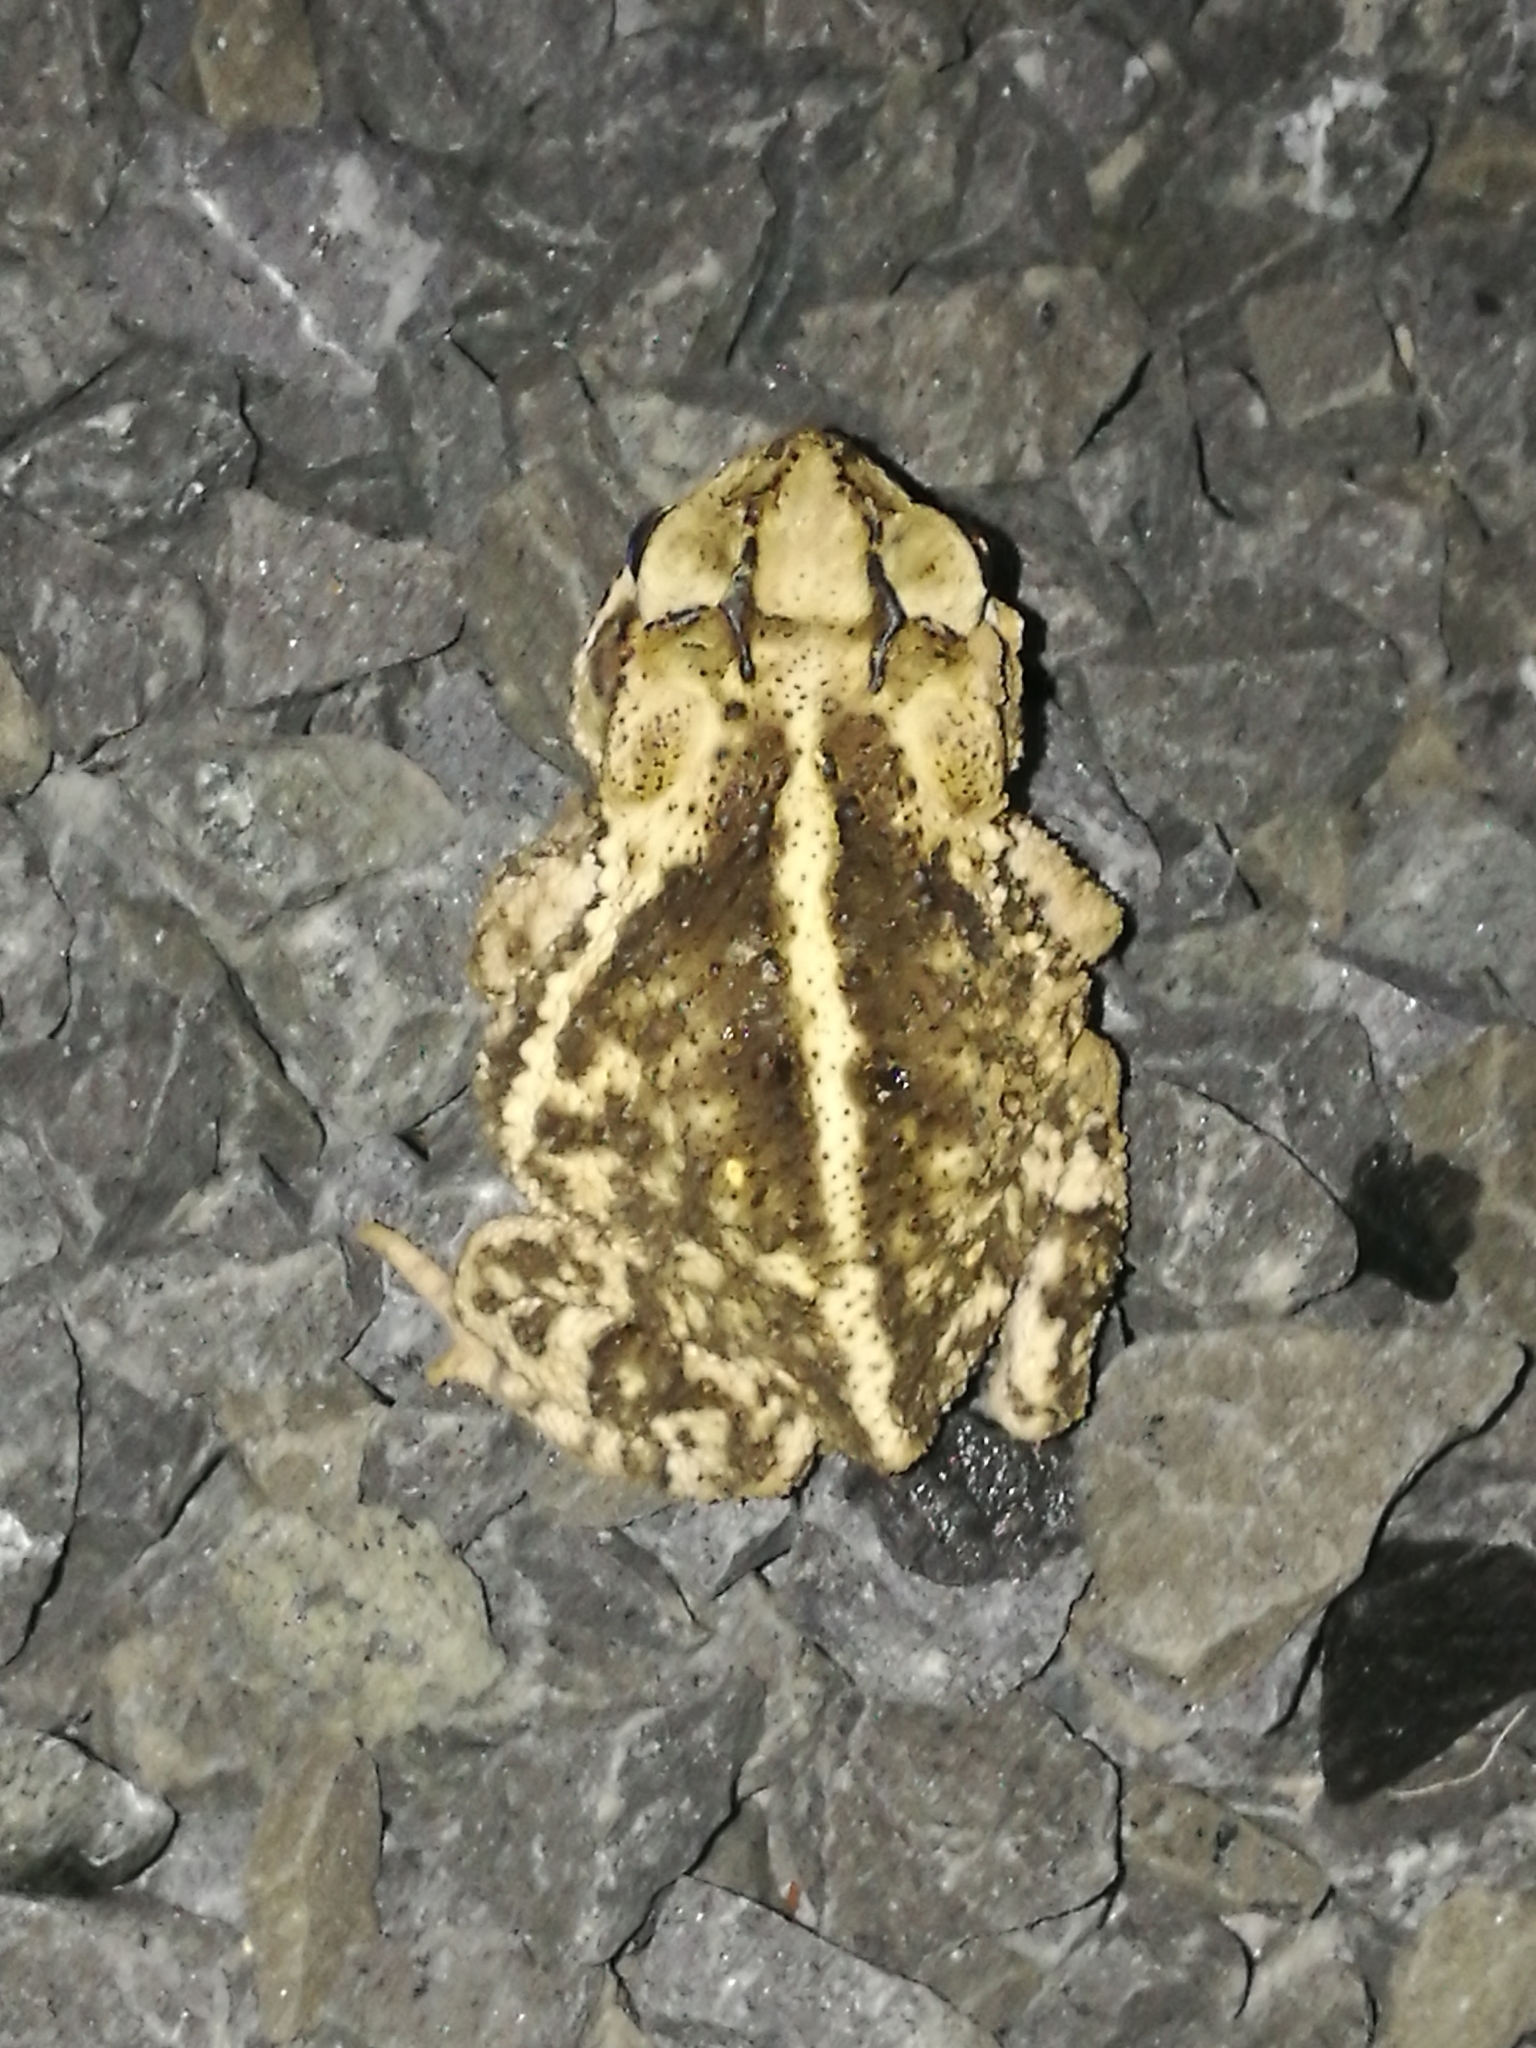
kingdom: Animalia
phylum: Chordata
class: Amphibia
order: Anura
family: Bufonidae
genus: Incilius
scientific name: Incilius nebulifer
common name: Gulf coast toad
